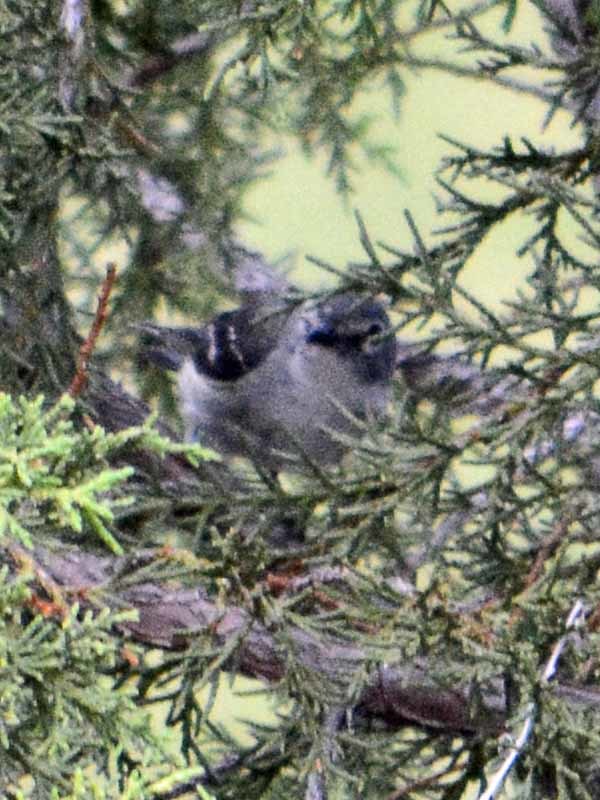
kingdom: Animalia
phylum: Chordata
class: Aves
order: Passeriformes
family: Vireonidae
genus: Vireo
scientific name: Vireo plumbeus
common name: Plumbeous vireo
